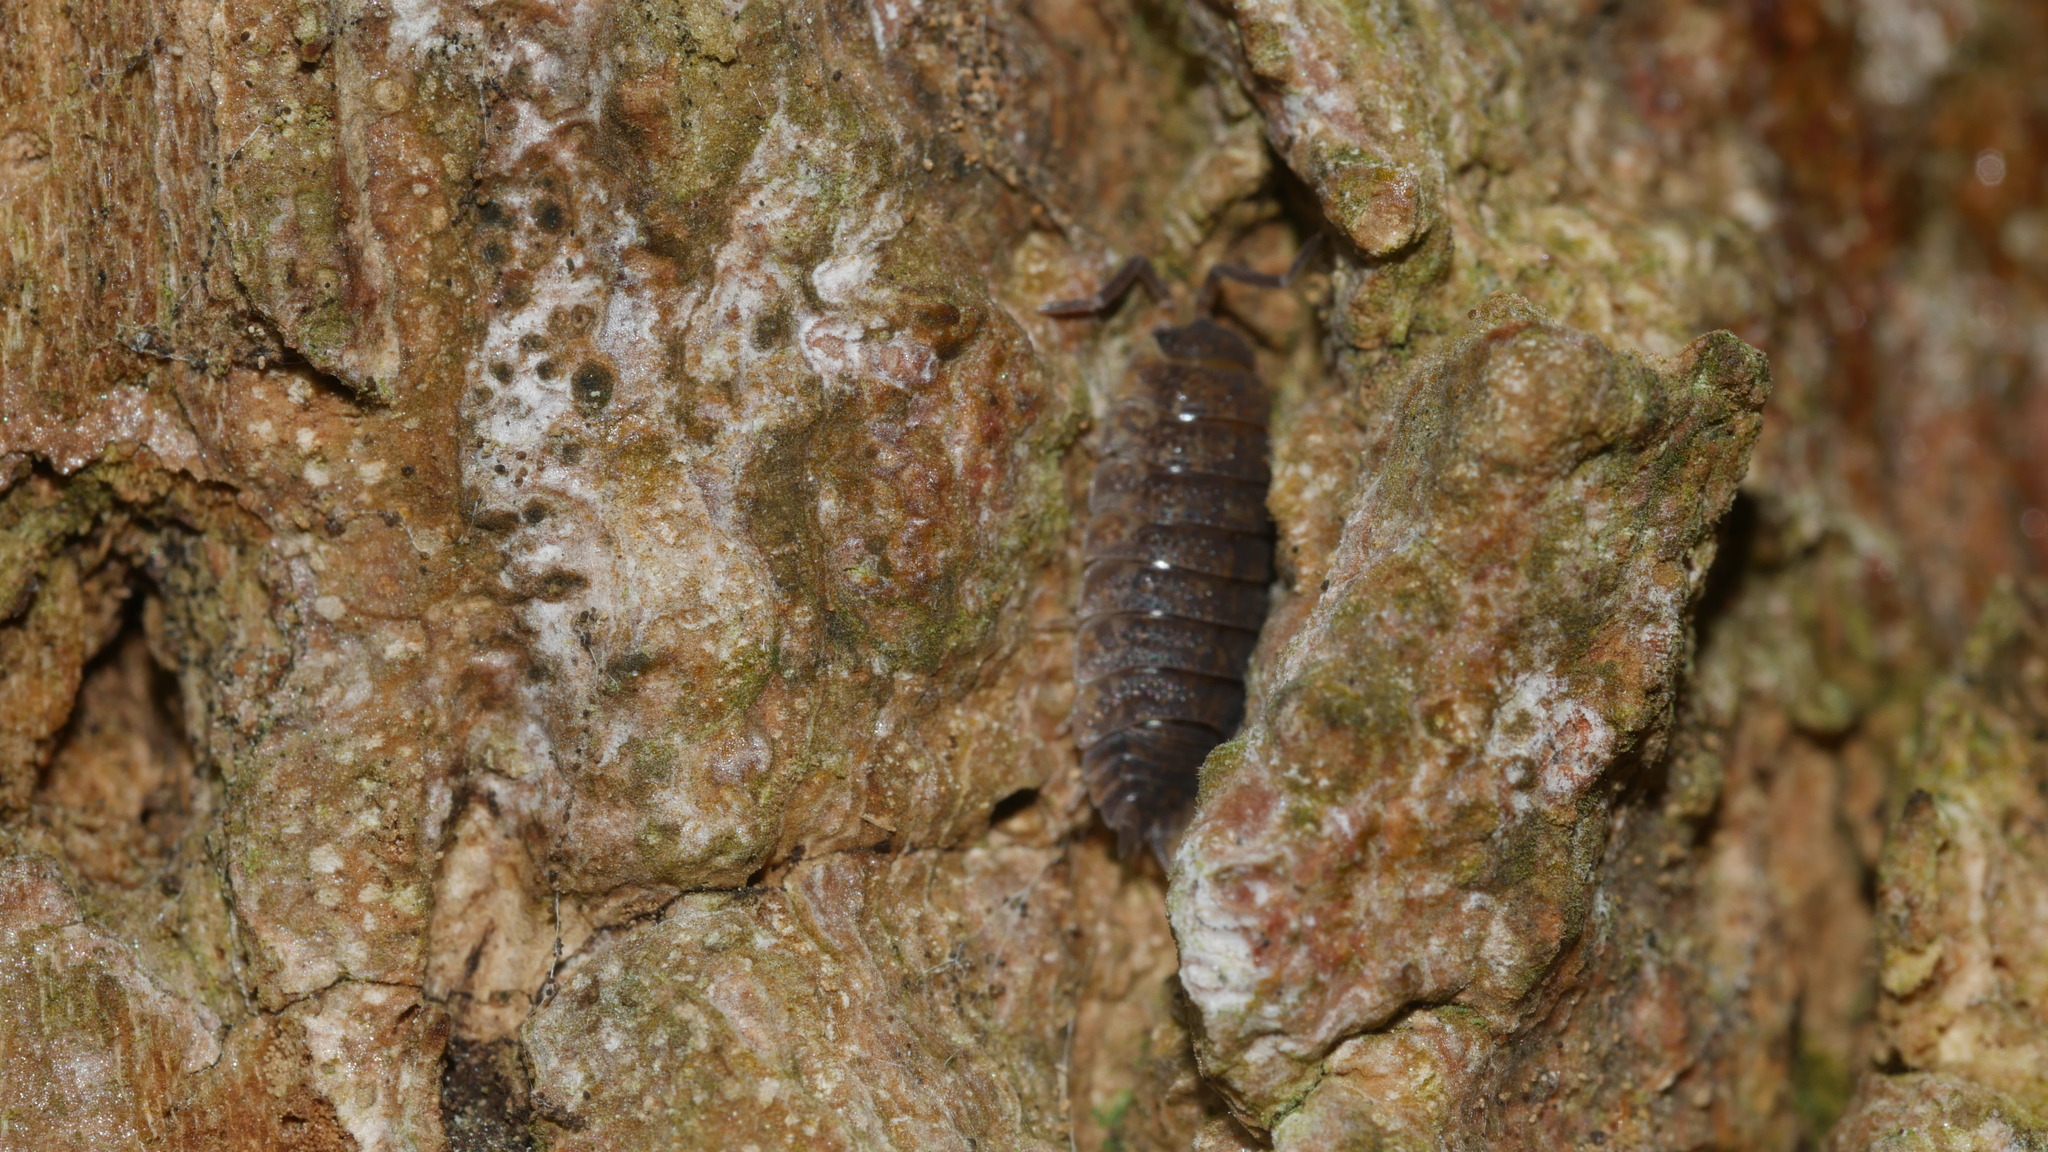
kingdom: Animalia
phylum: Arthropoda
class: Malacostraca
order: Isopoda
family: Porcellionidae
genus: Porcellio
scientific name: Porcellio scaber
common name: Common rough woodlouse
